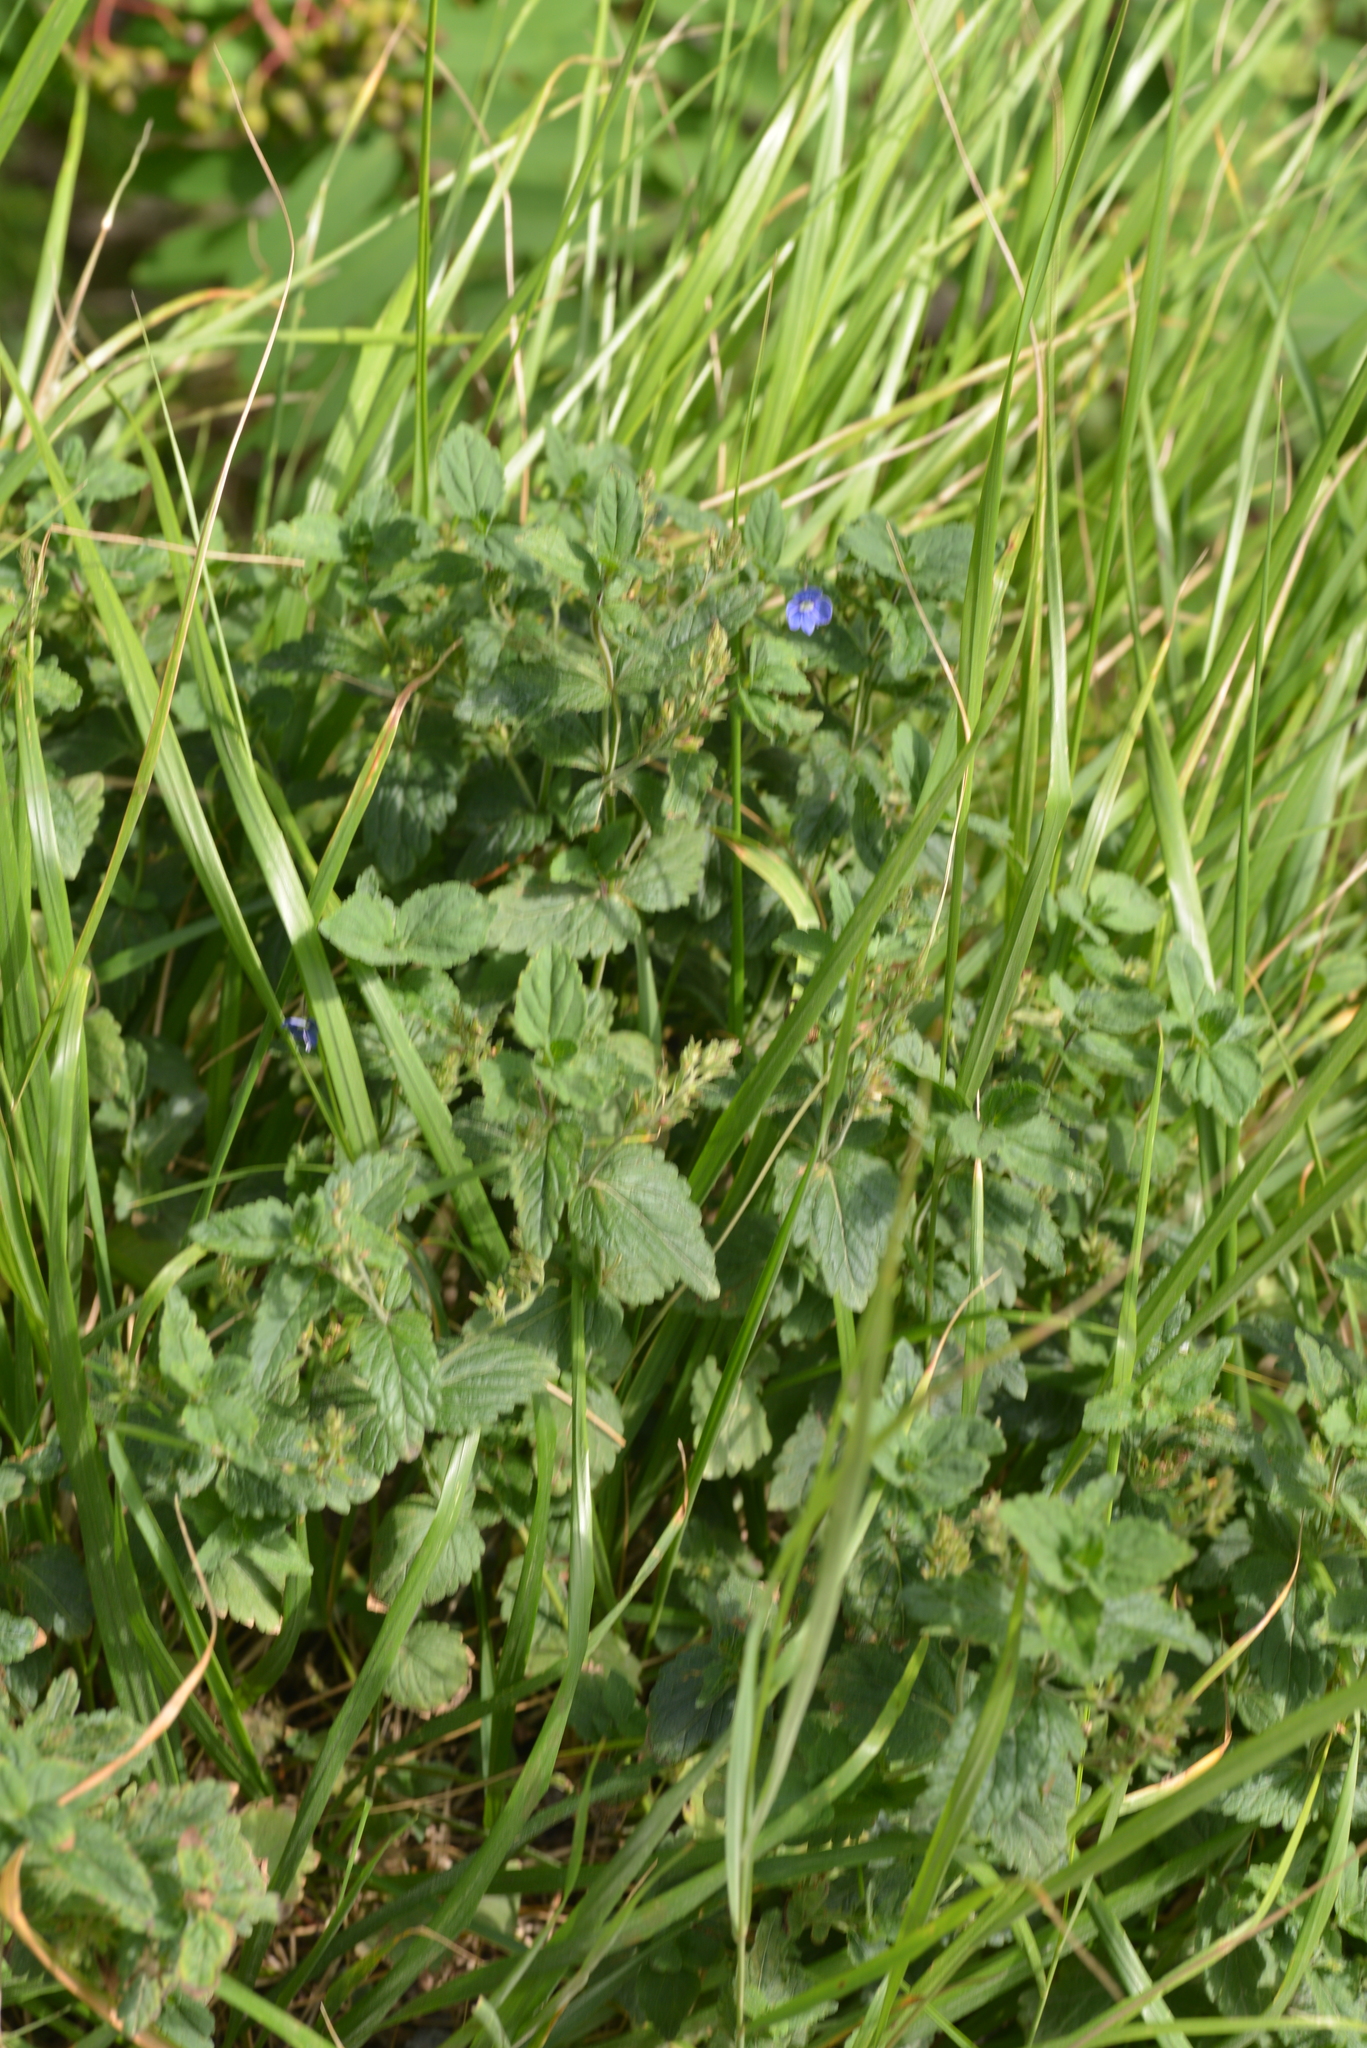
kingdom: Plantae
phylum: Tracheophyta
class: Magnoliopsida
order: Lamiales
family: Plantaginaceae
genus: Veronica
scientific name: Veronica chamaedrys
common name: Germander speedwell
